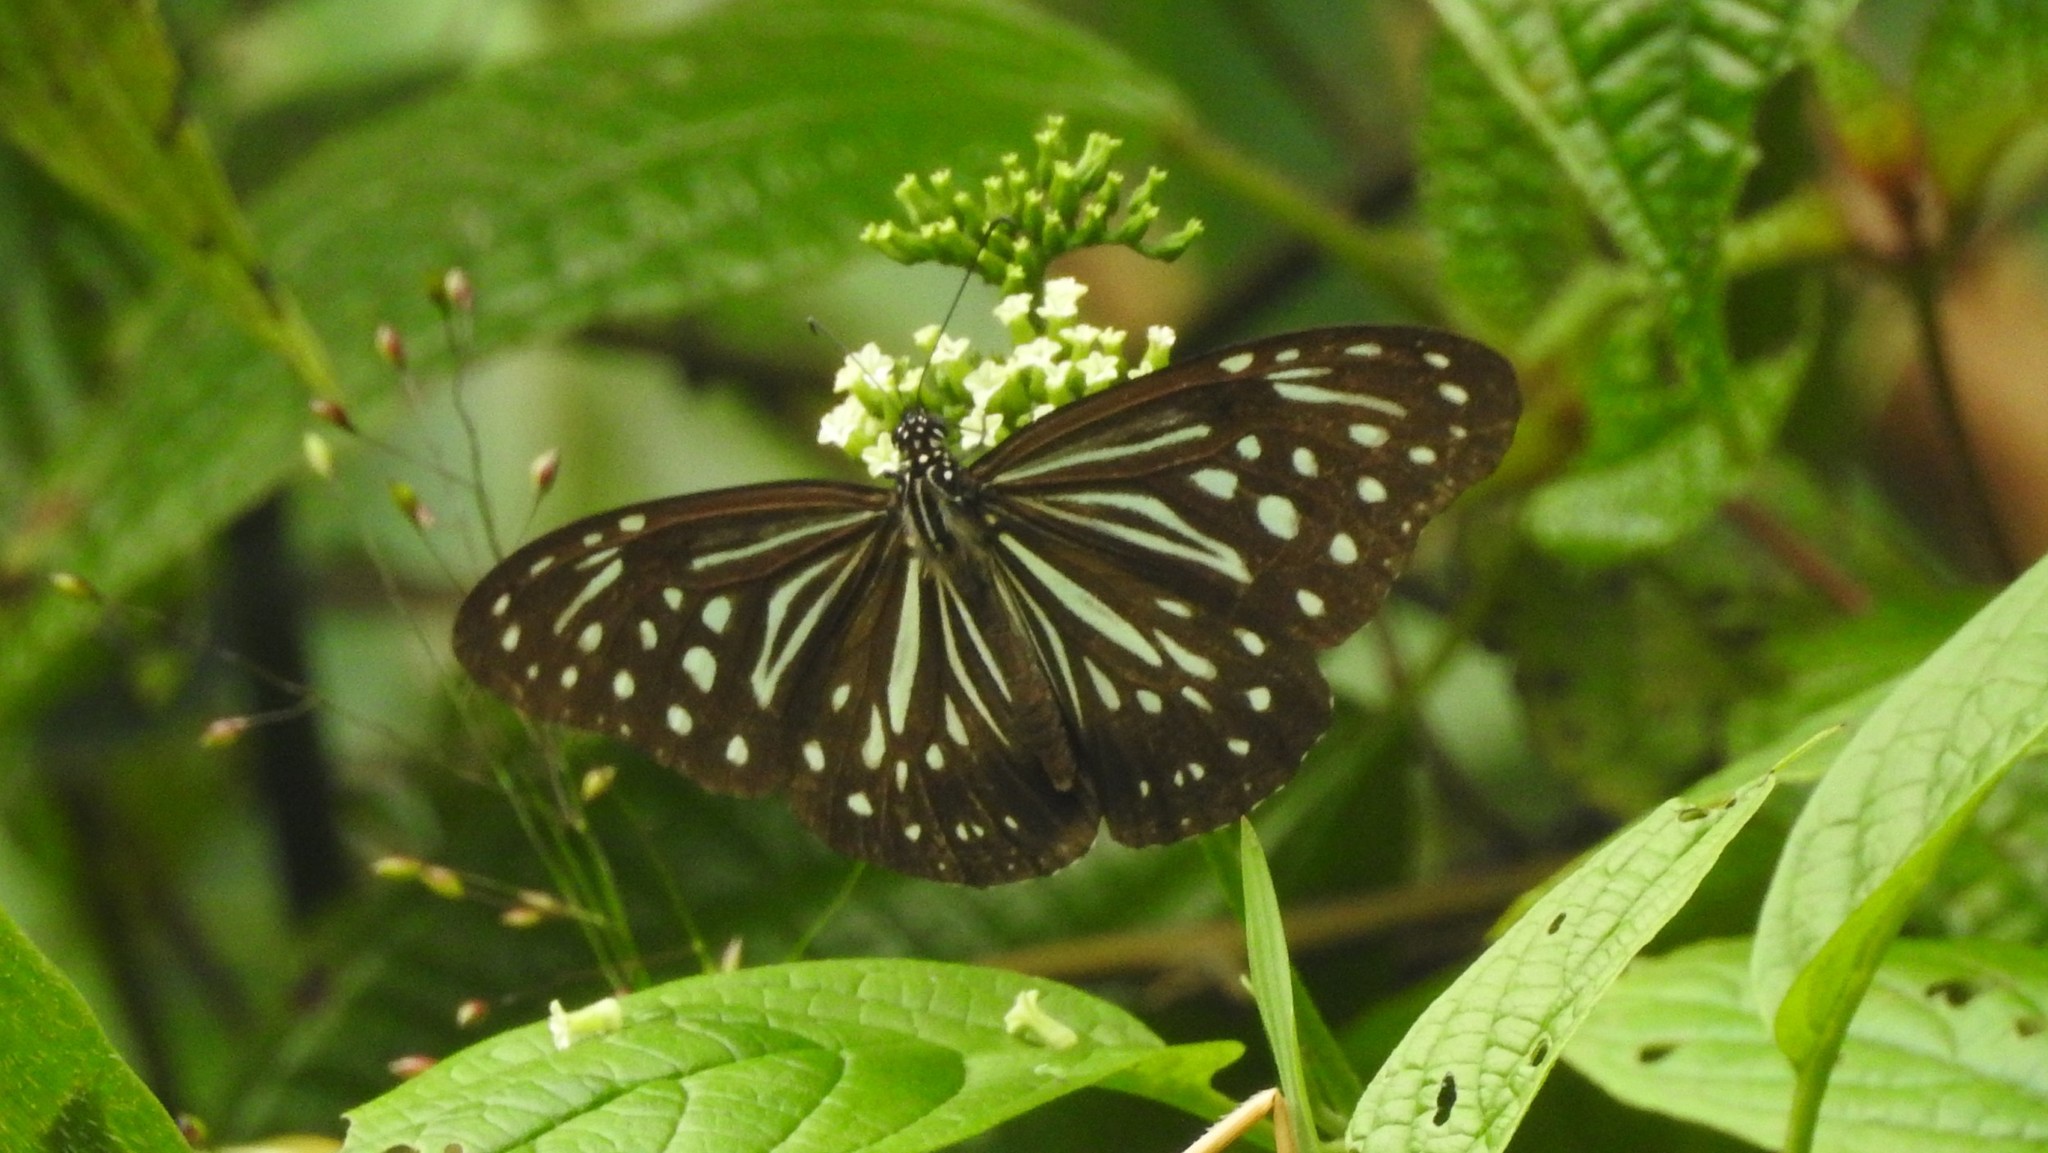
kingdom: Animalia
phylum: Arthropoda
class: Insecta
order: Lepidoptera
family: Nymphalidae
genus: Parantica
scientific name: Parantica nilgiriensis
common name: Nilgiri tiger
